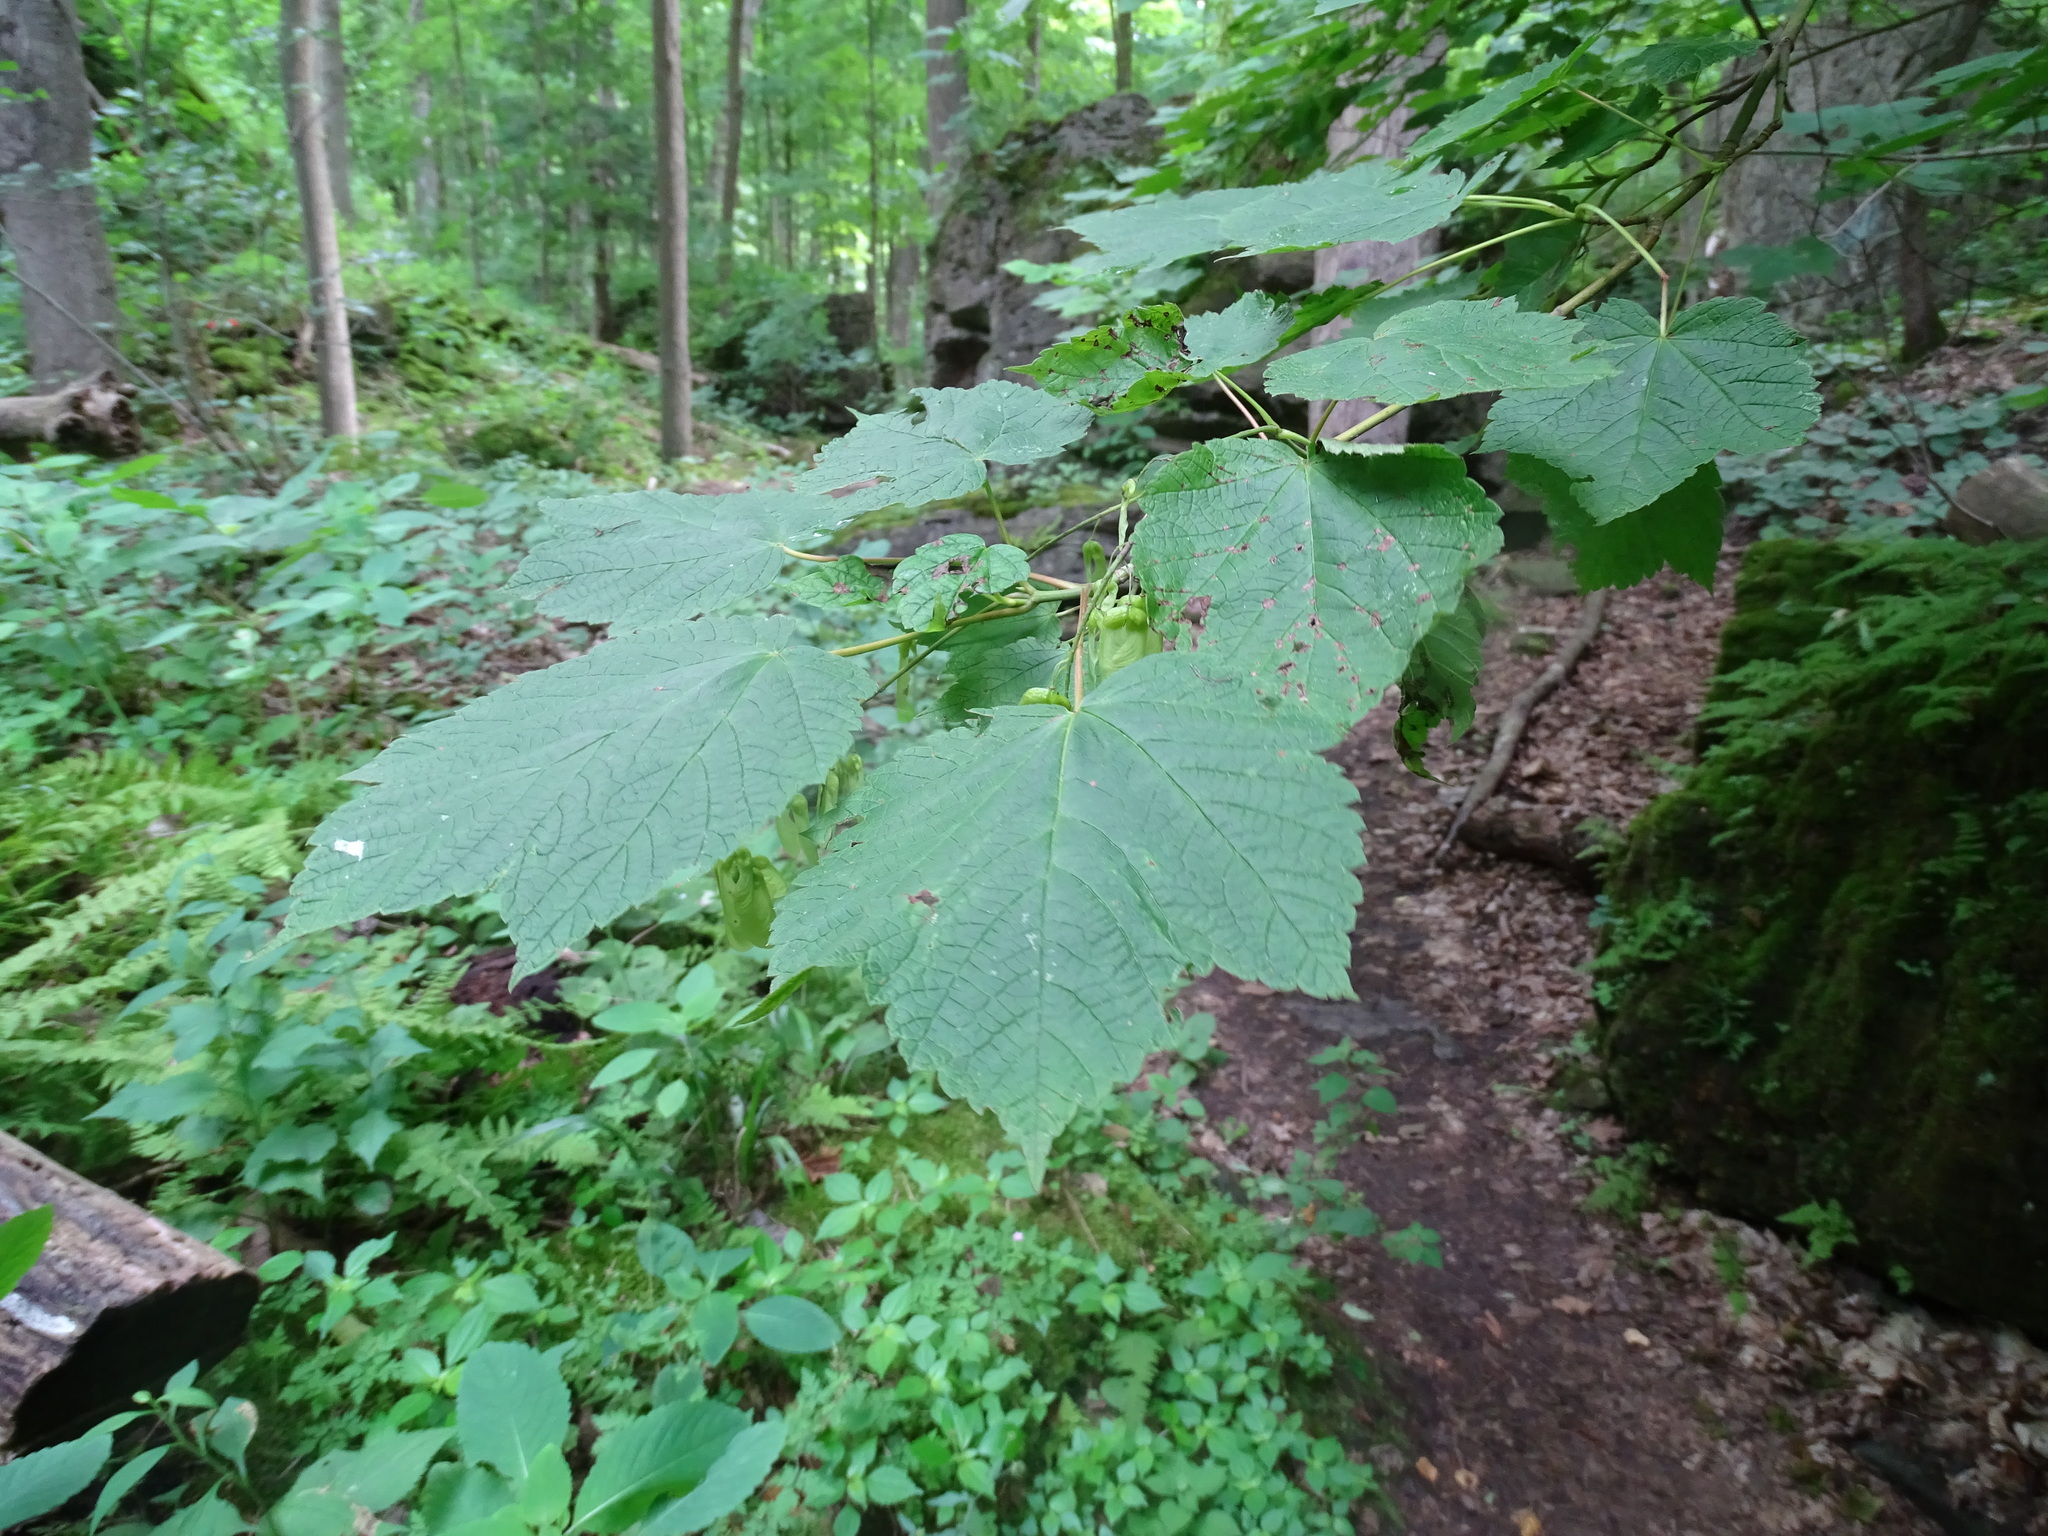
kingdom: Plantae
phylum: Tracheophyta
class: Magnoliopsida
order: Sapindales
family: Sapindaceae
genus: Acer
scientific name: Acer spicatum
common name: Mountain maple
